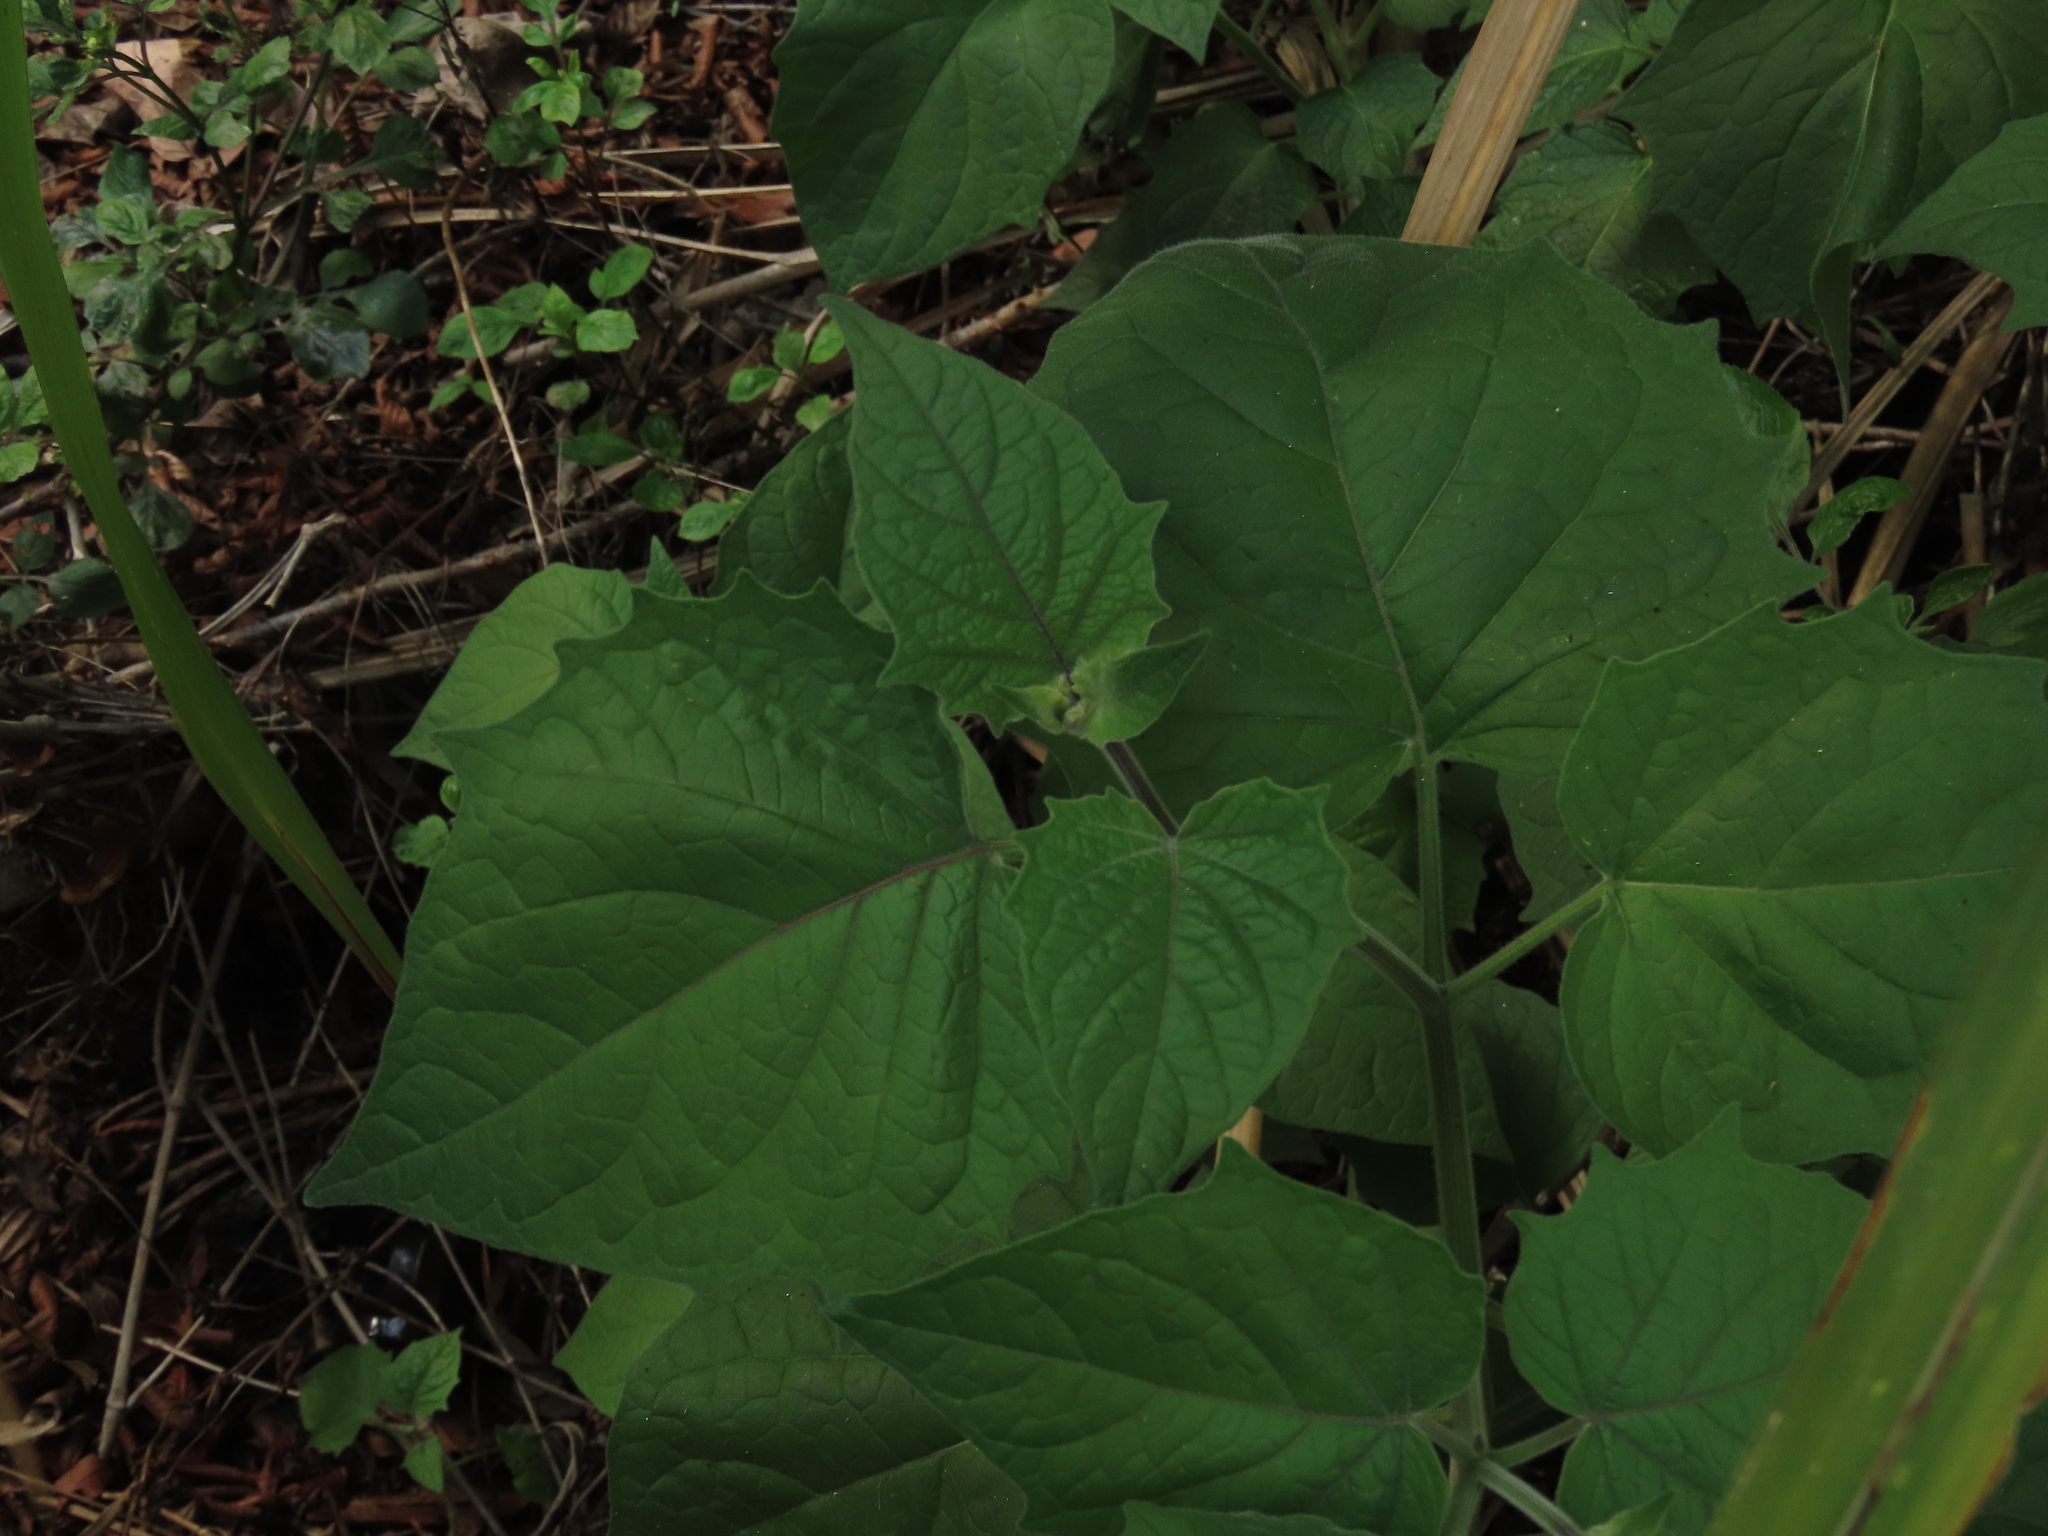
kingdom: Plantae
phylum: Tracheophyta
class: Magnoliopsida
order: Solanales
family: Solanaceae
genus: Physalis
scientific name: Physalis peruviana
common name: Cape-gooseberry
